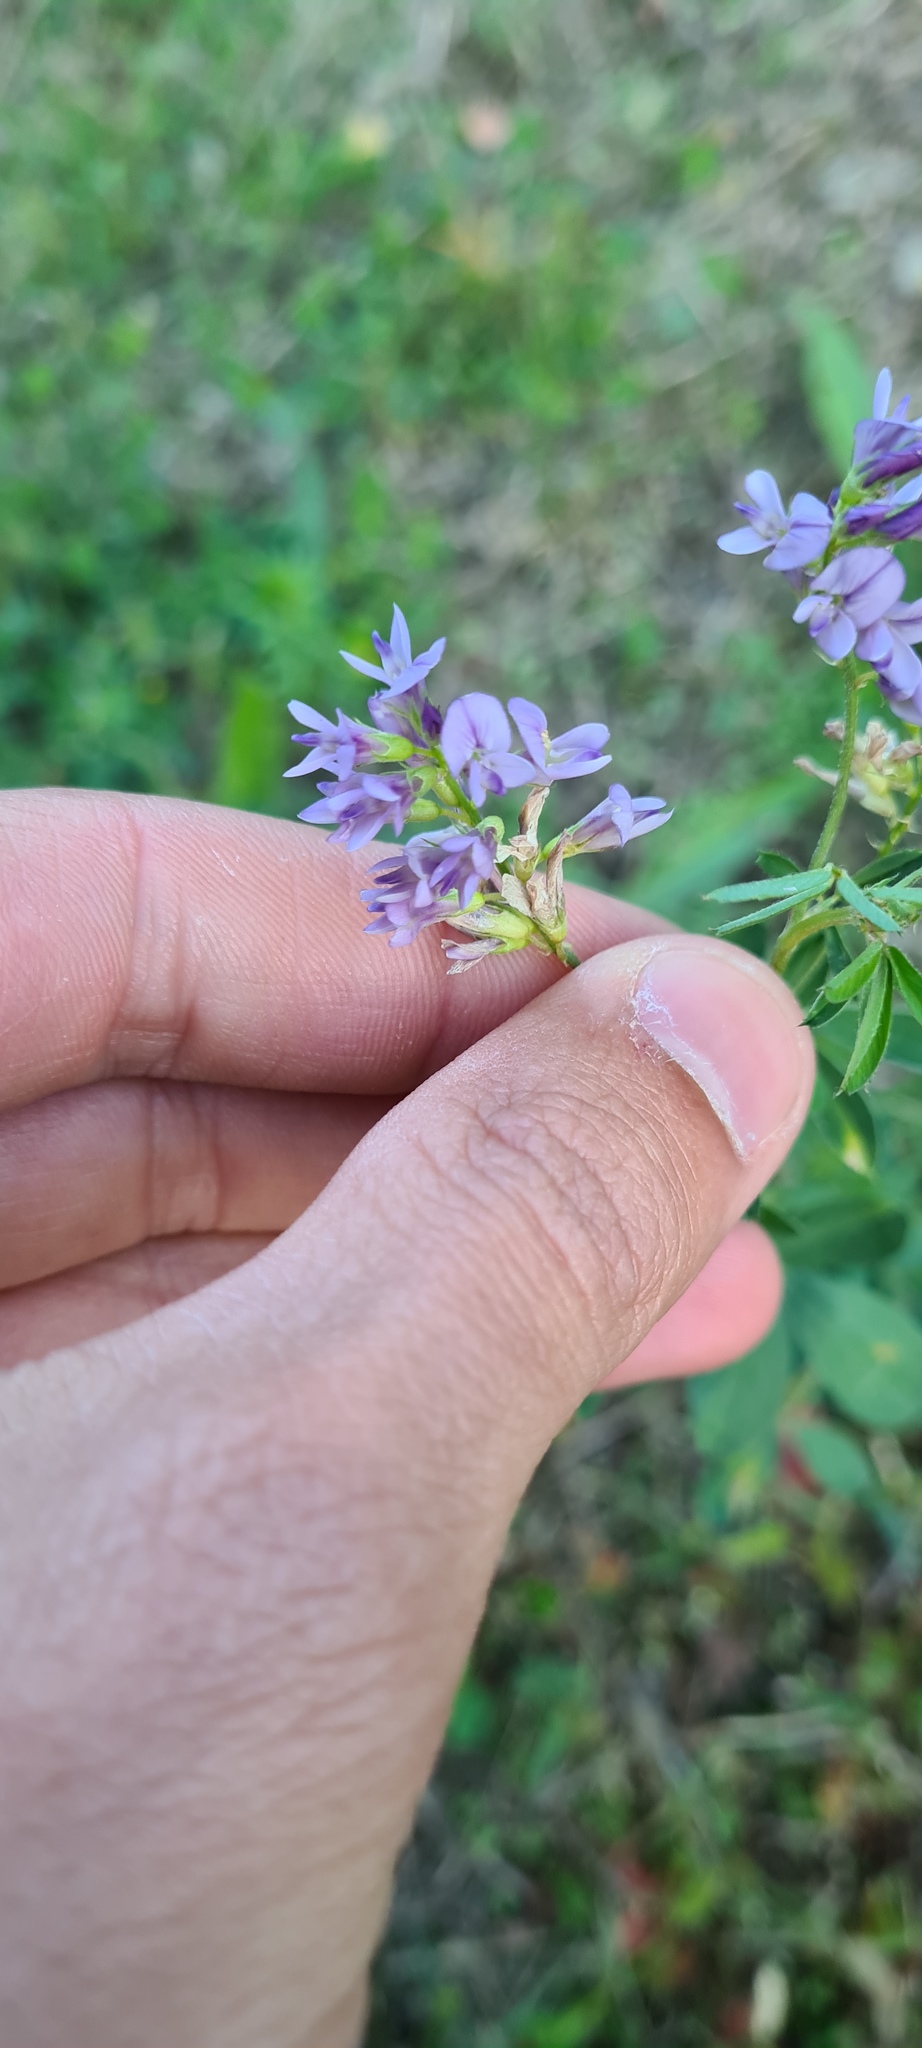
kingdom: Plantae
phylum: Tracheophyta
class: Magnoliopsida
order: Fabales
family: Fabaceae
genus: Medicago
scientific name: Medicago sativa
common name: Alfalfa
